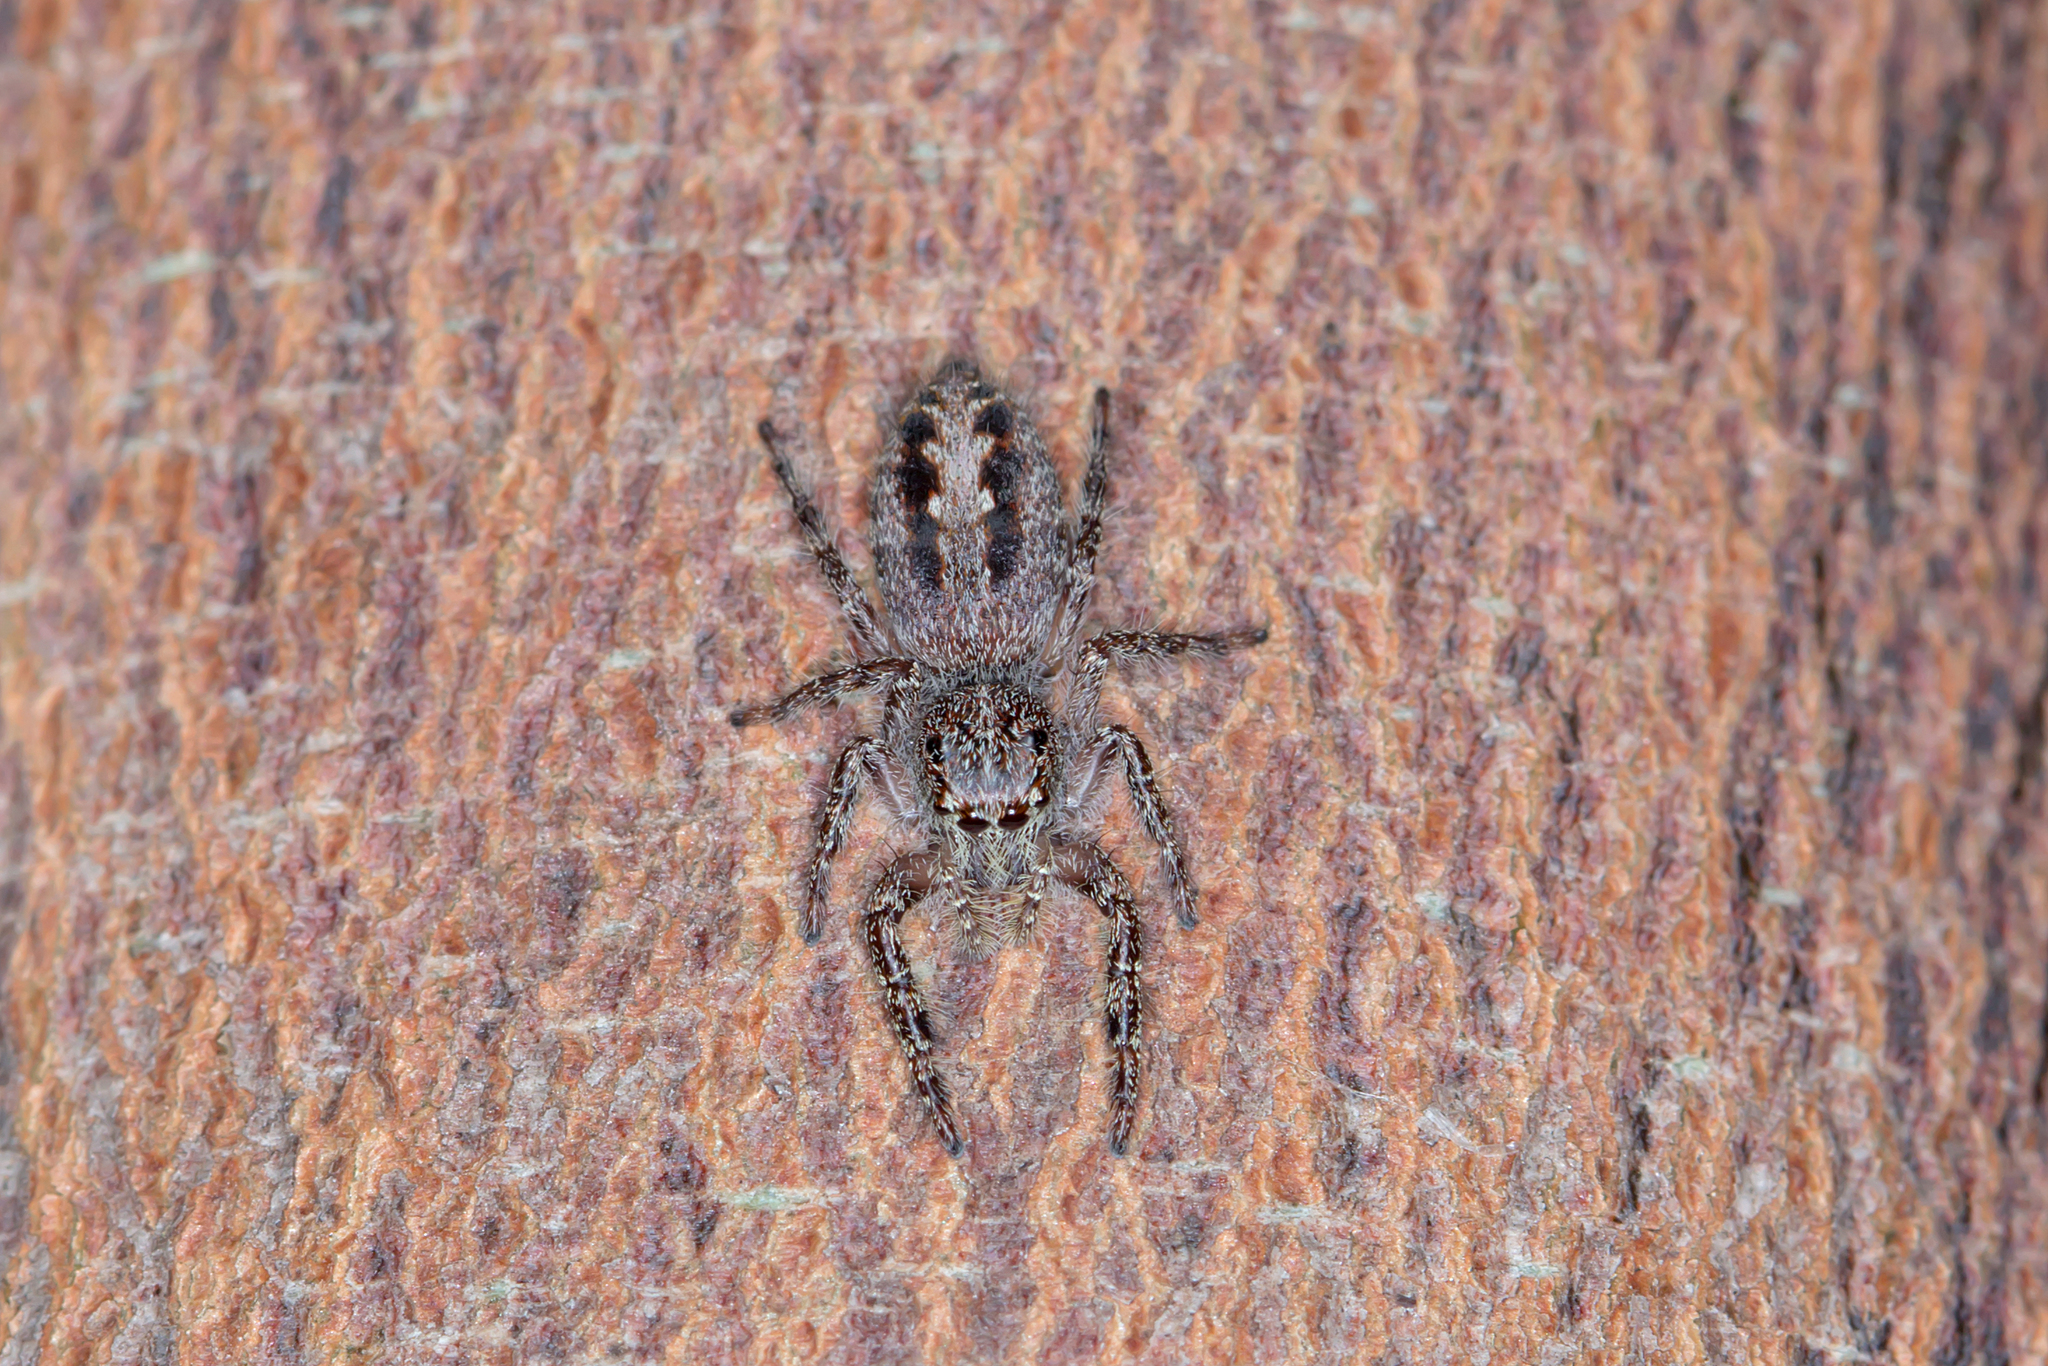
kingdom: Animalia
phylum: Arthropoda
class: Arachnida
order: Araneae
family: Salticidae
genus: Sandalodes
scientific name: Sandalodes superbus
